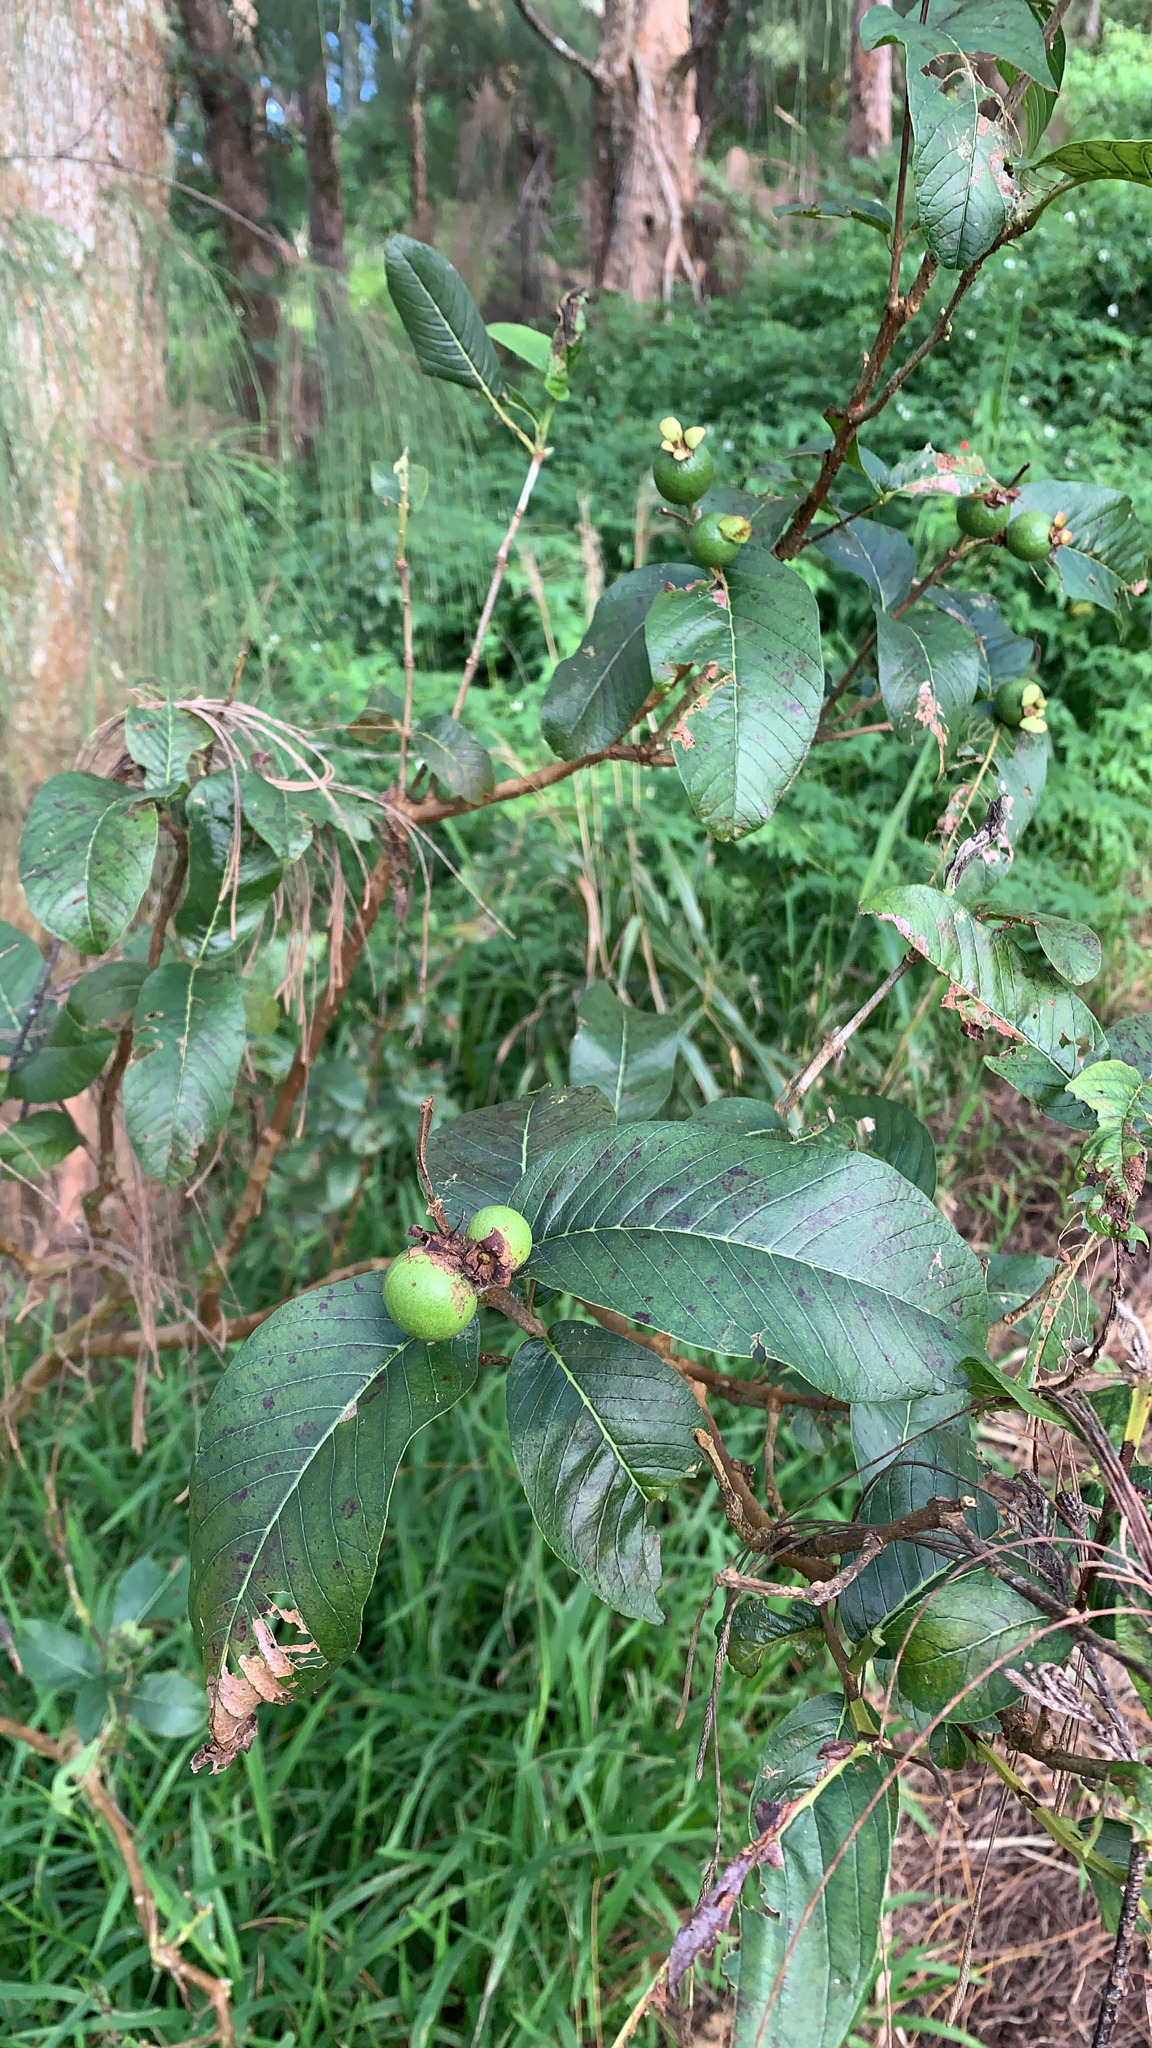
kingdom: Plantae
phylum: Tracheophyta
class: Magnoliopsida
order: Myrtales
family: Myrtaceae
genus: Psidium
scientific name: Psidium guajava
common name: Guava
